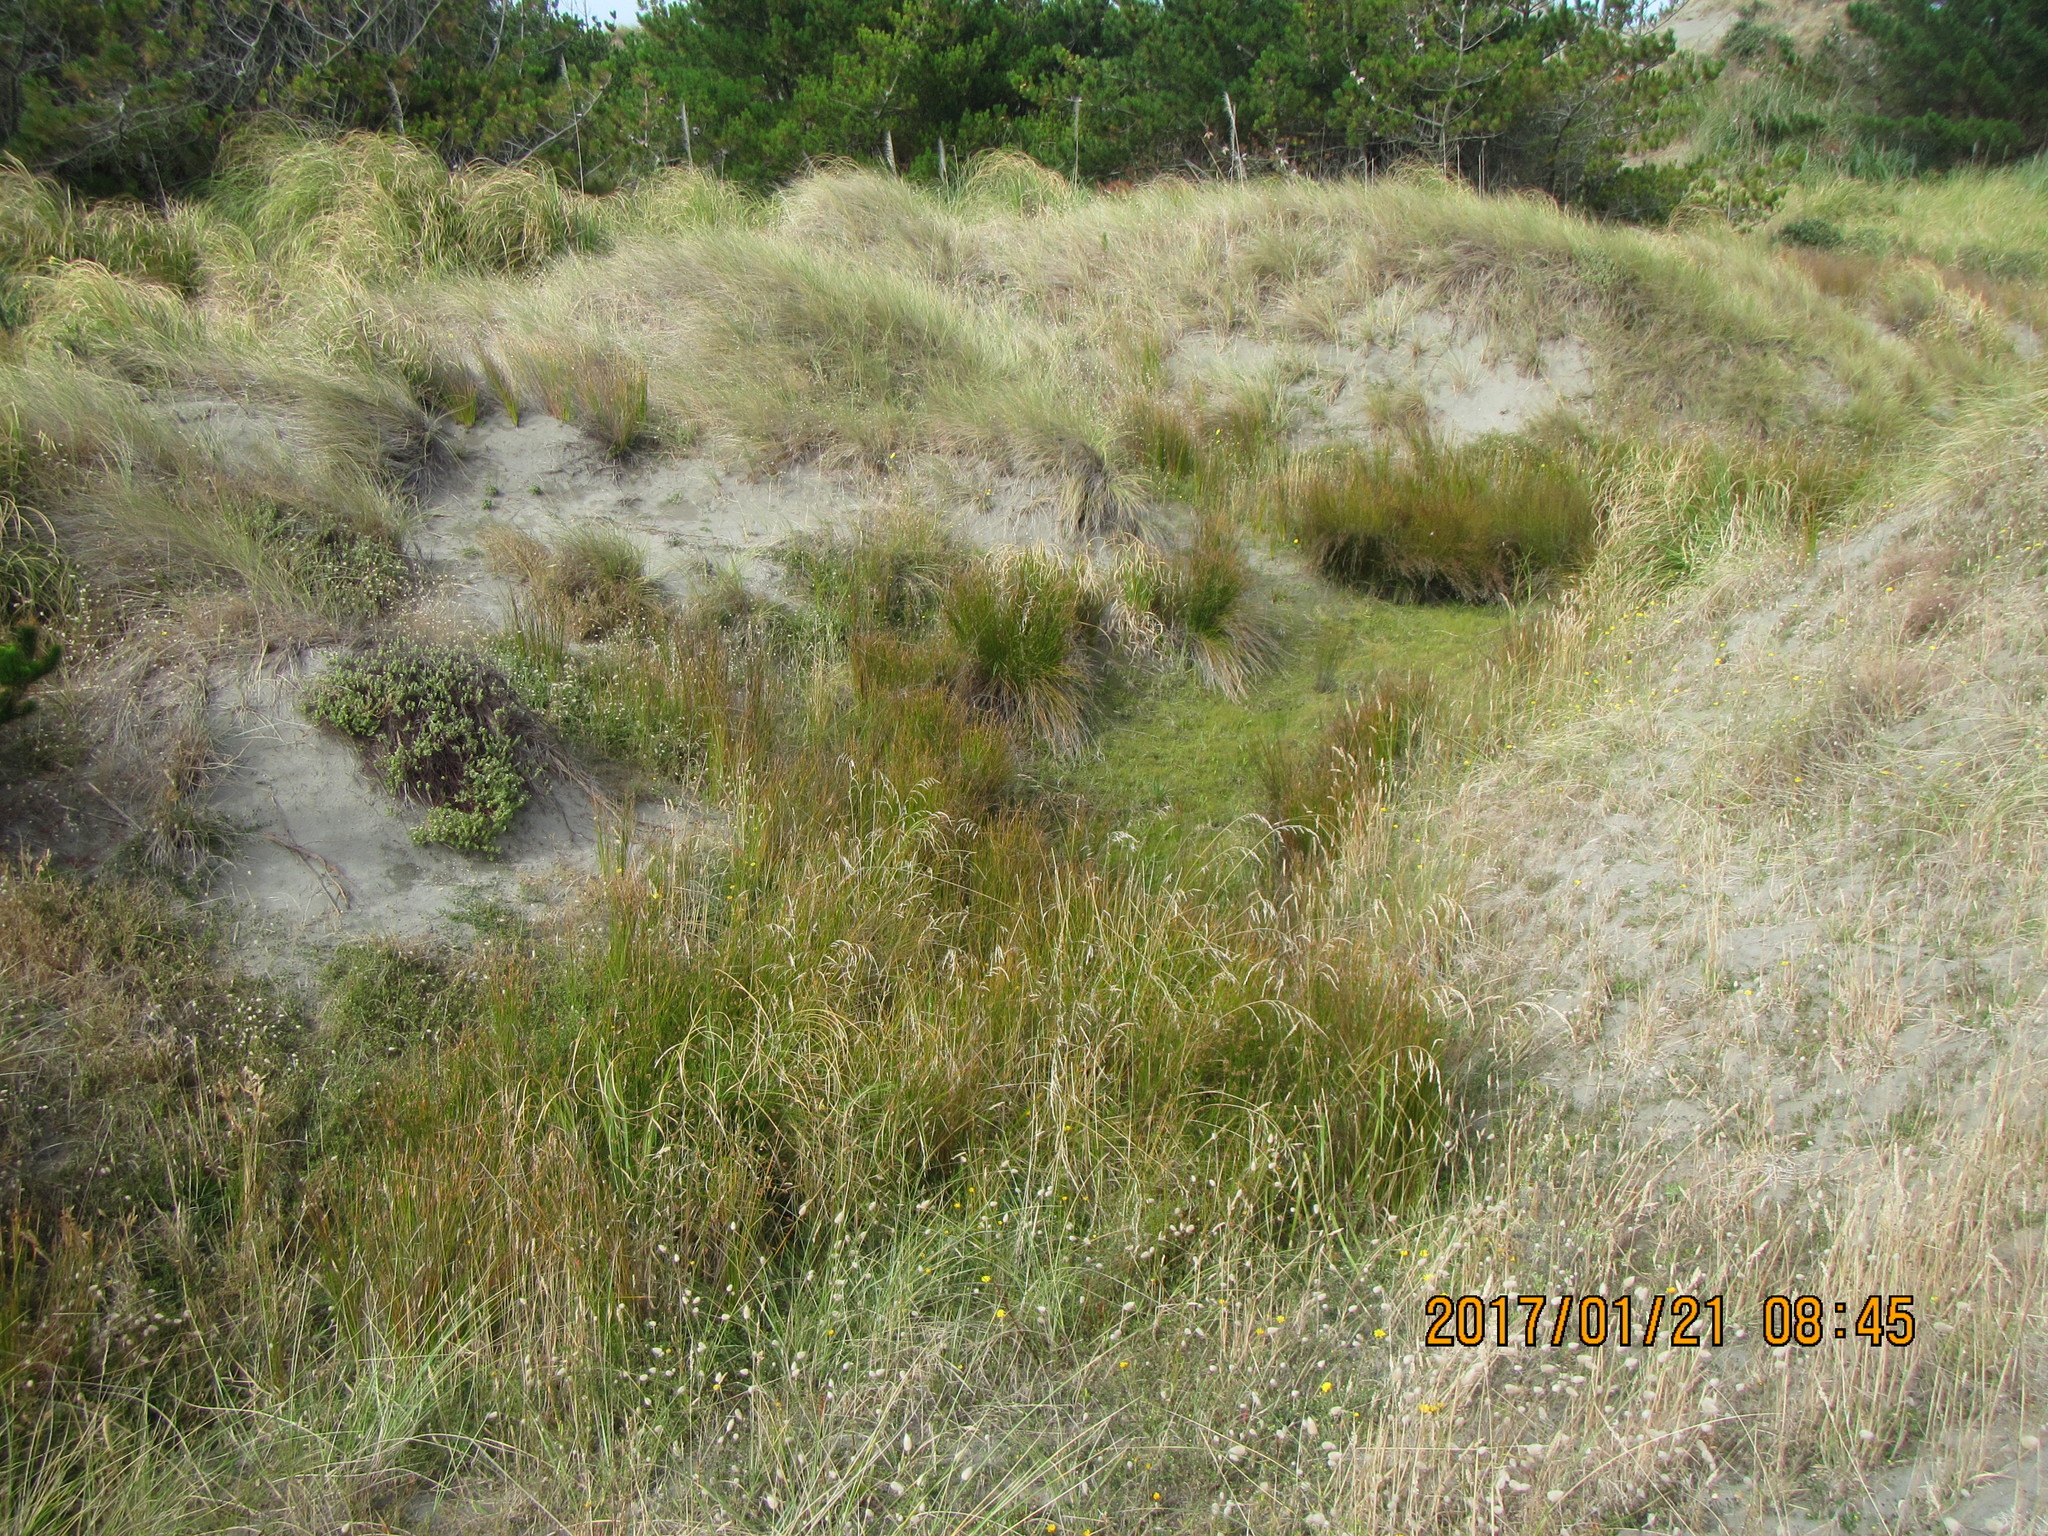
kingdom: Plantae
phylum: Tracheophyta
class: Magnoliopsida
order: Malvales
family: Thymelaeaceae
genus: Pimelea
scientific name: Pimelea villosa
